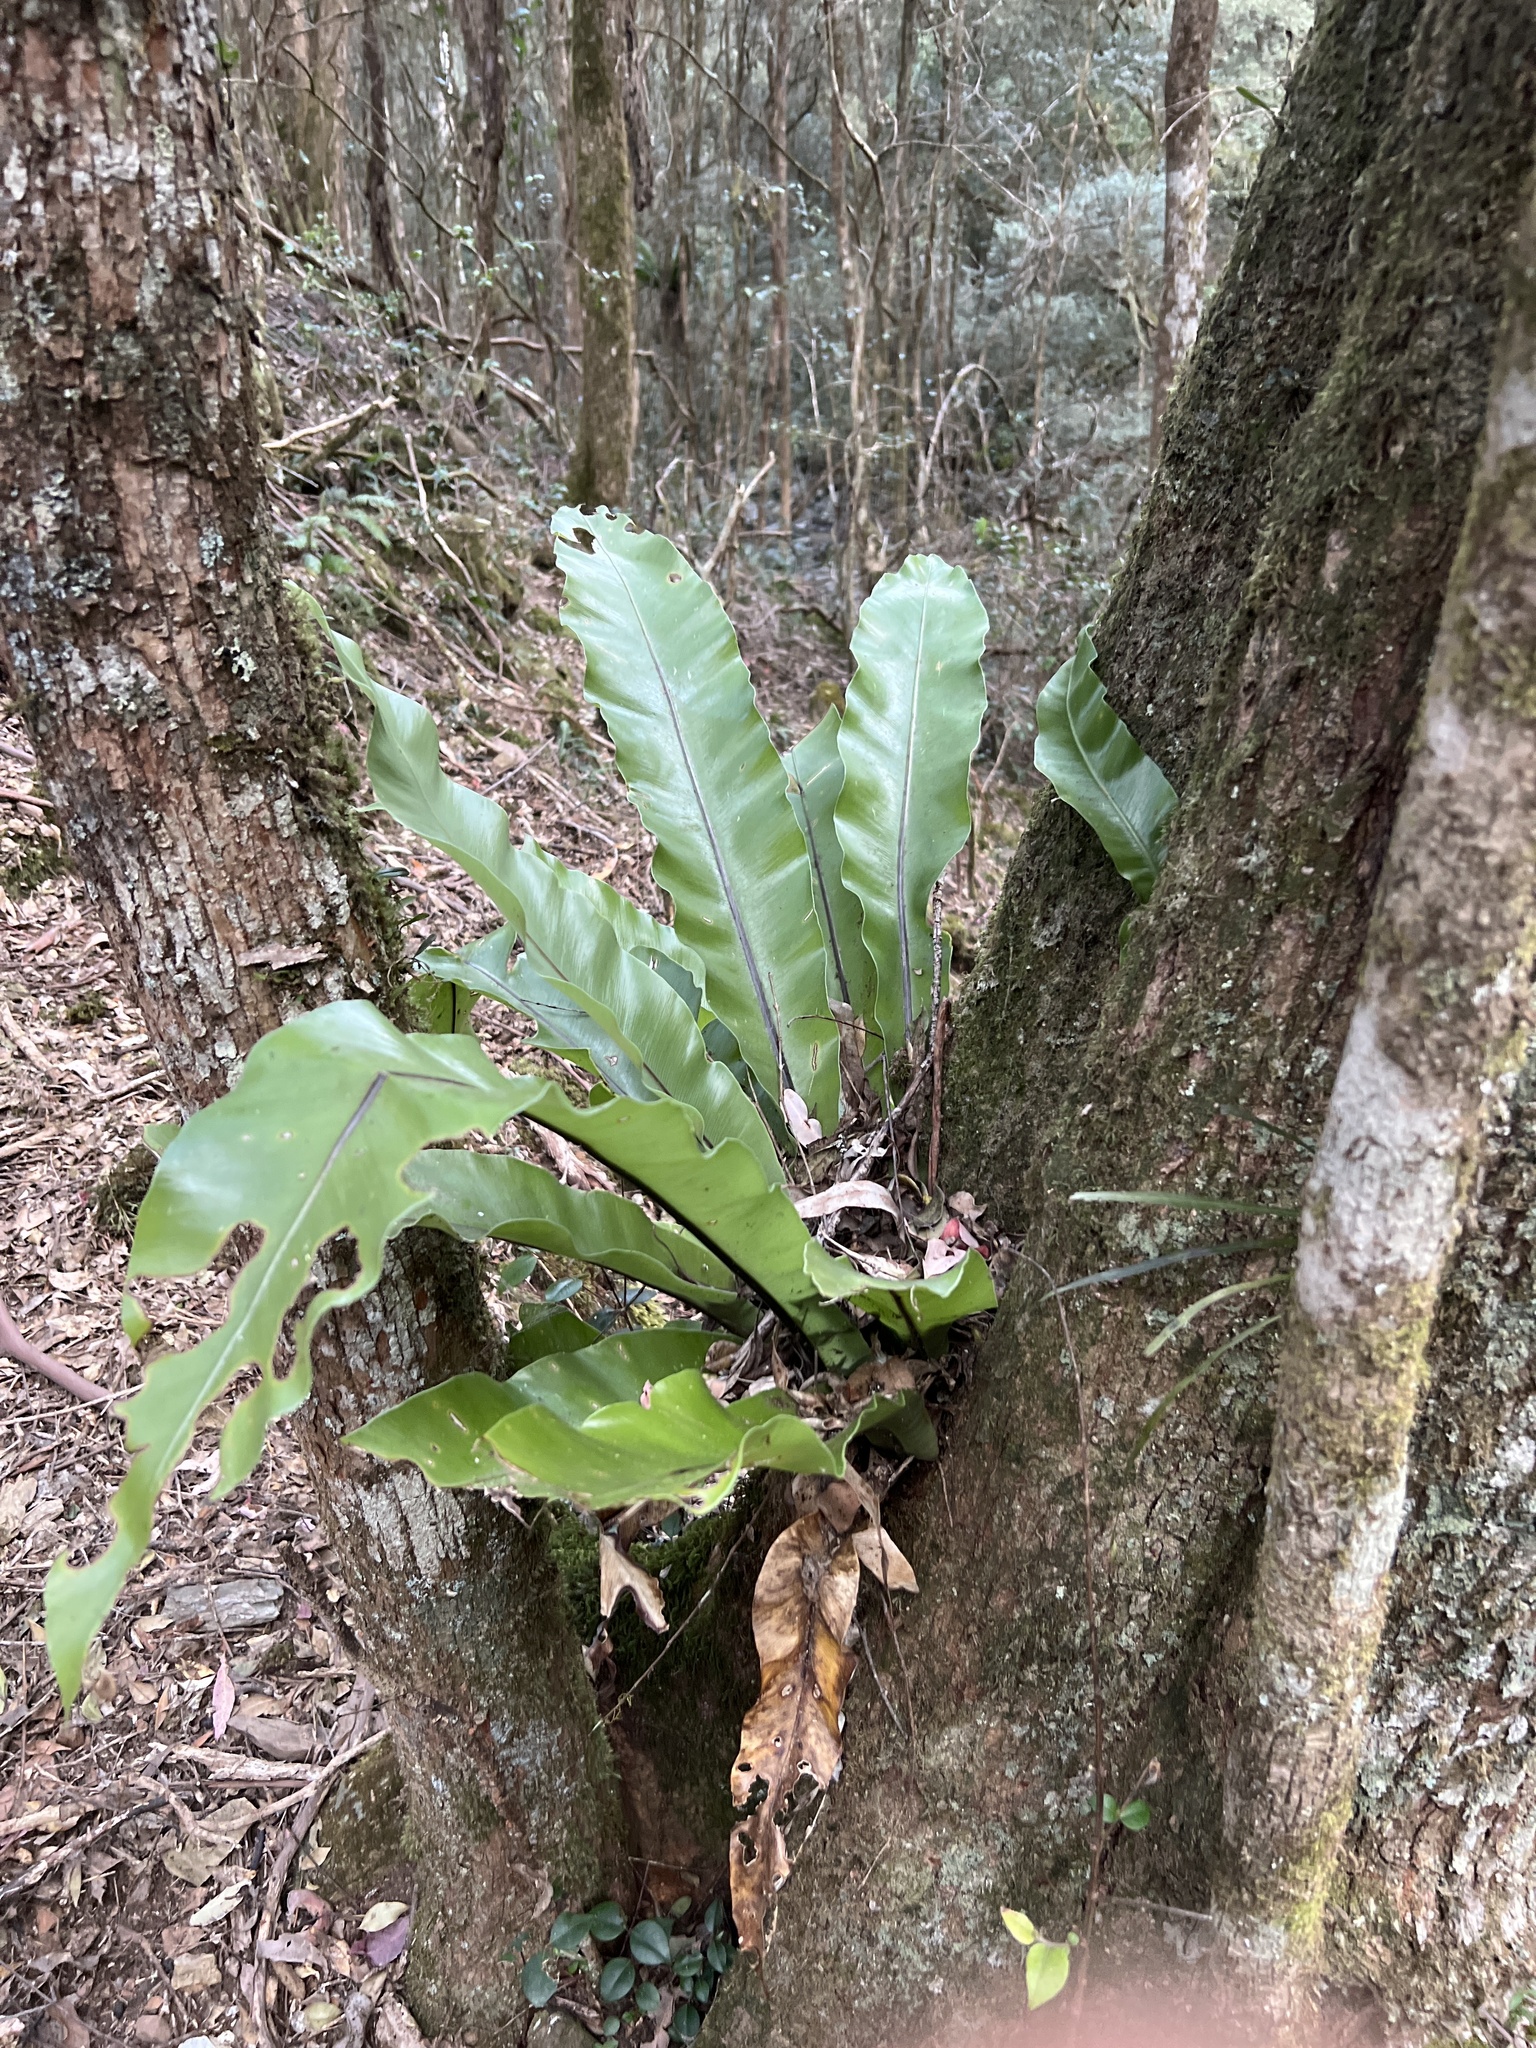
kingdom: Plantae
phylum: Tracheophyta
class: Polypodiopsida
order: Polypodiales
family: Aspleniaceae
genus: Asplenium
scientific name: Asplenium australasicum
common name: Bird's-nest fern
